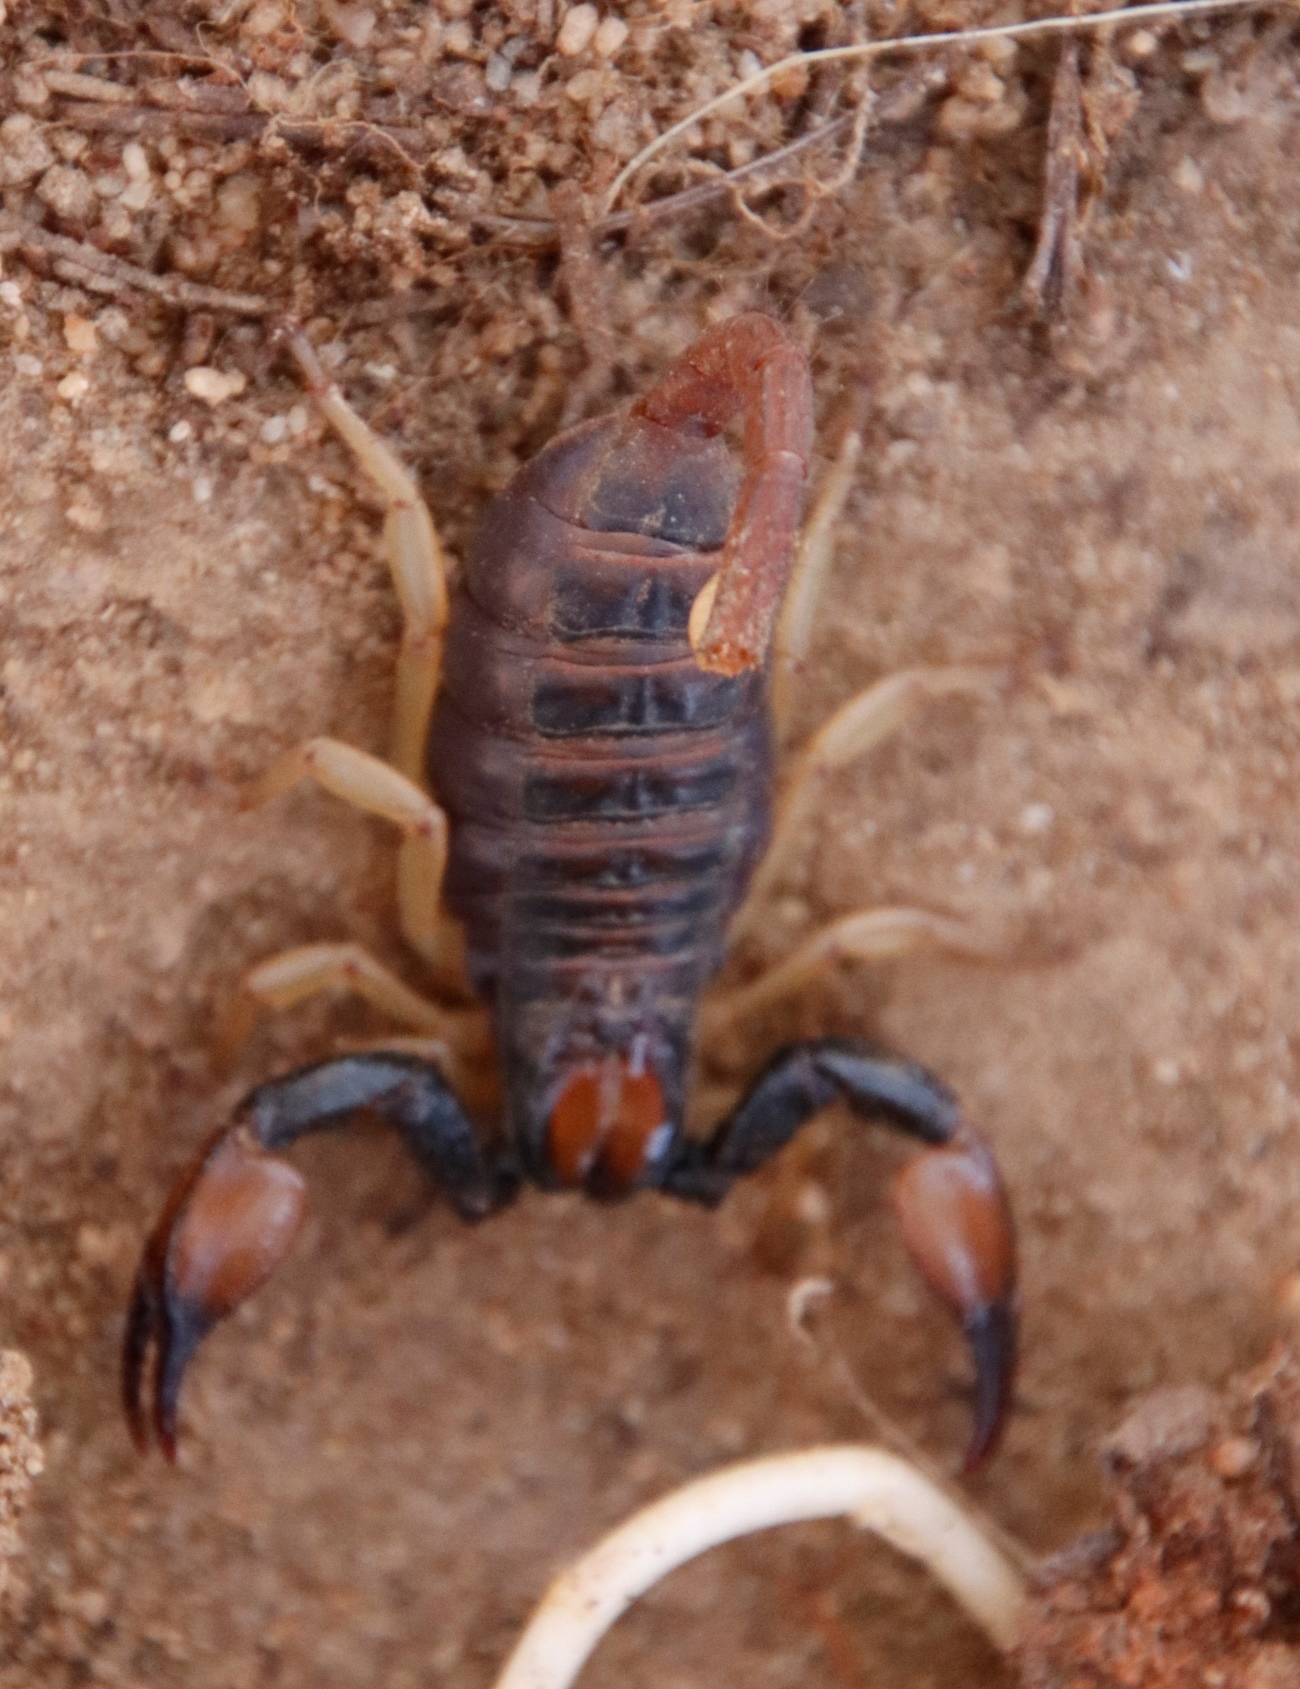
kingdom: Animalia
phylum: Arthropoda
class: Arachnida
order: Scorpiones
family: Scorpionidae
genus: Opistophthalmus
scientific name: Opistophthalmus pallipes
